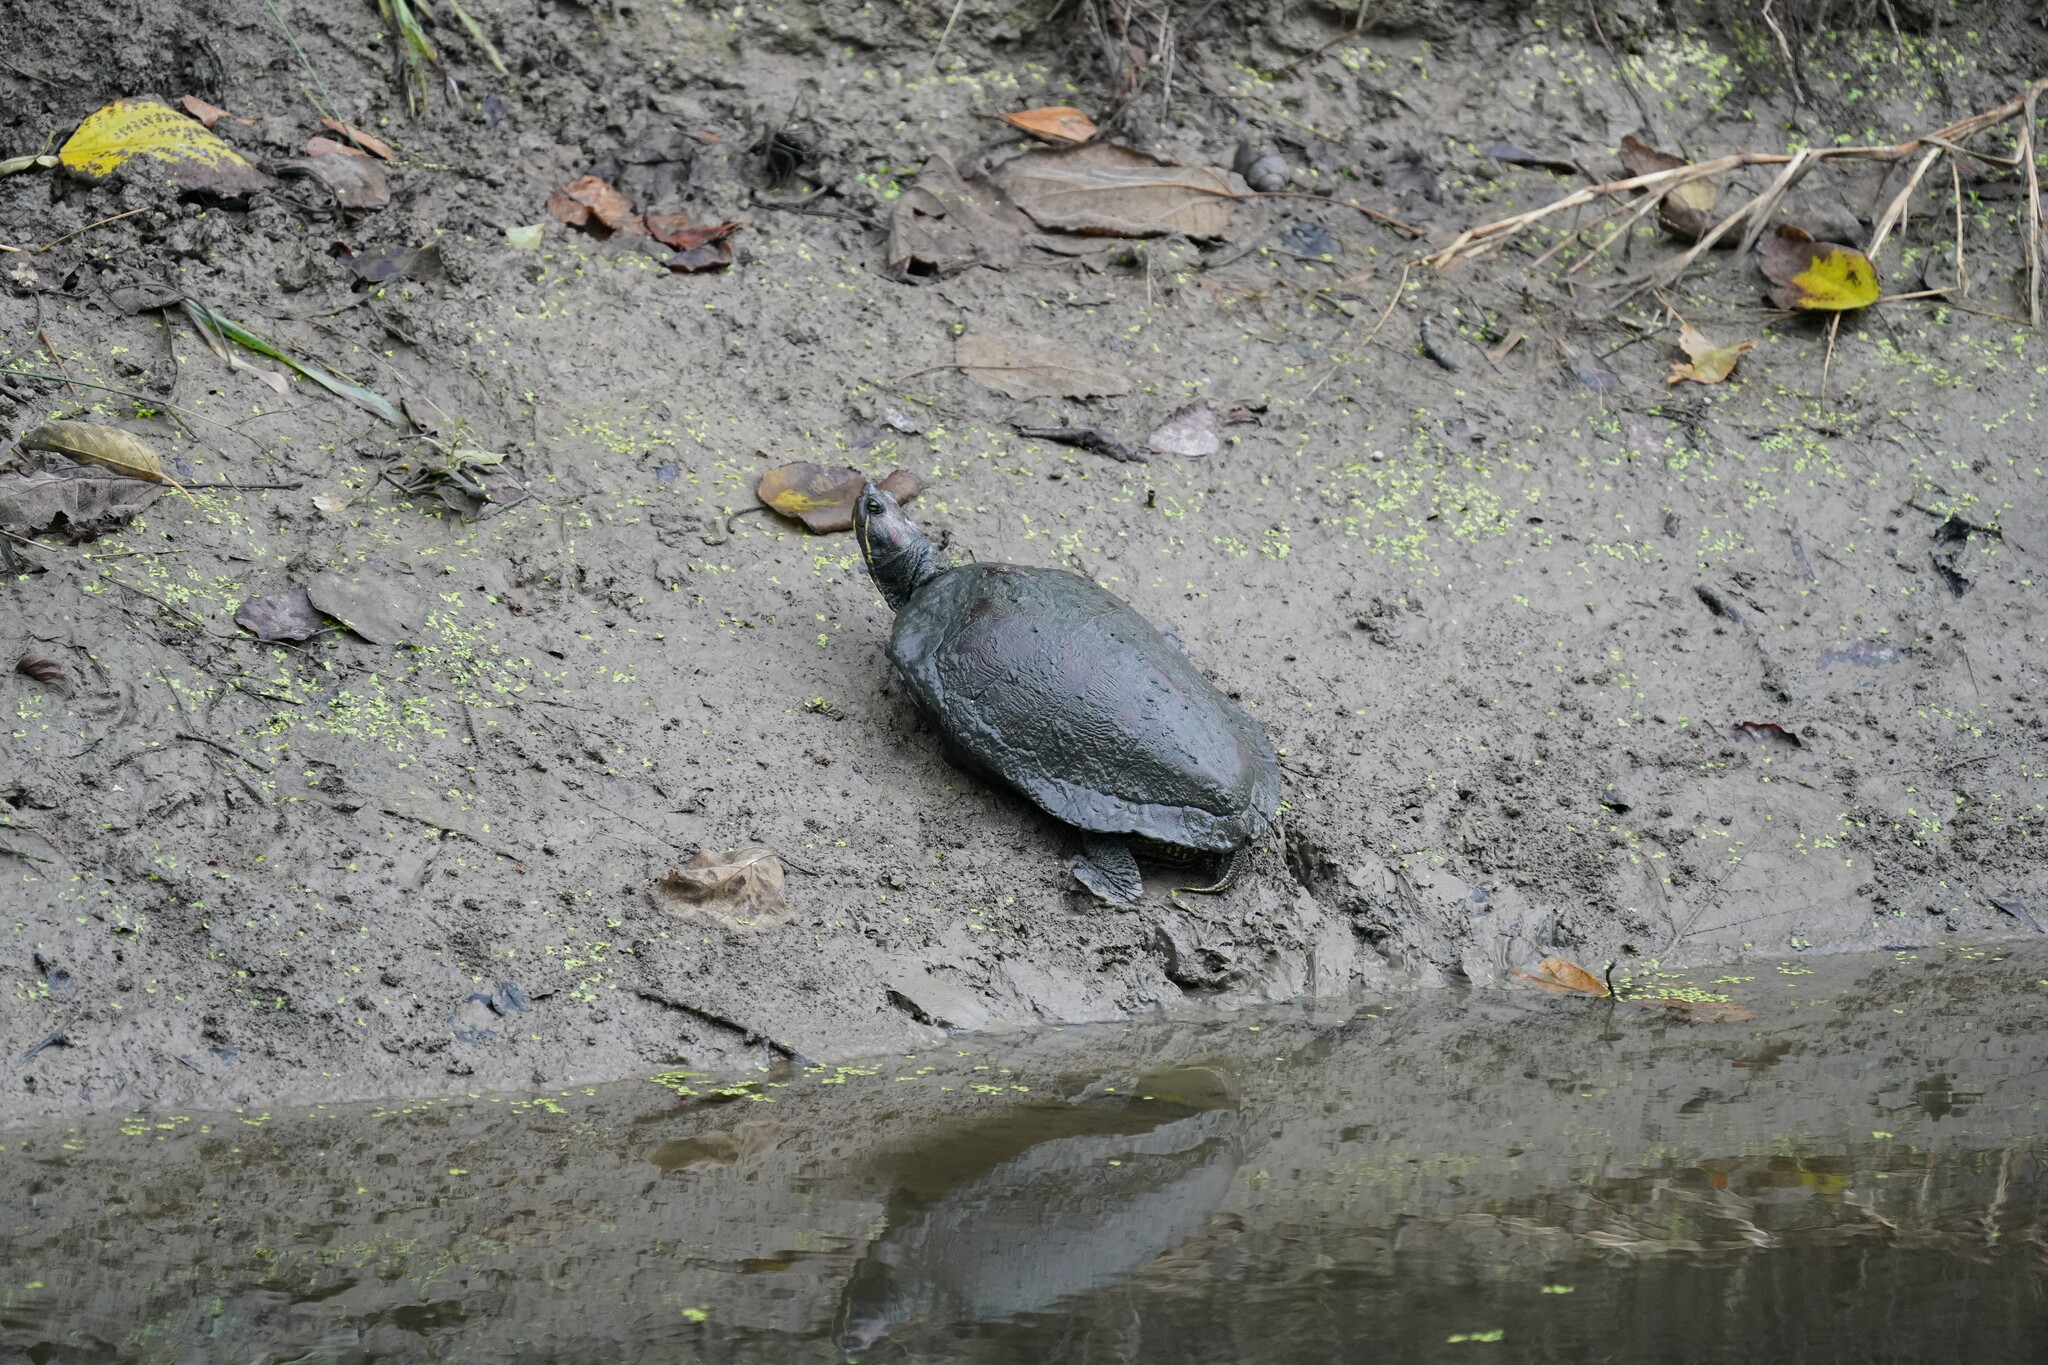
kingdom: Animalia
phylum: Chordata
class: Testudines
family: Emydidae
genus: Trachemys
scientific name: Trachemys scripta
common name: Slider
